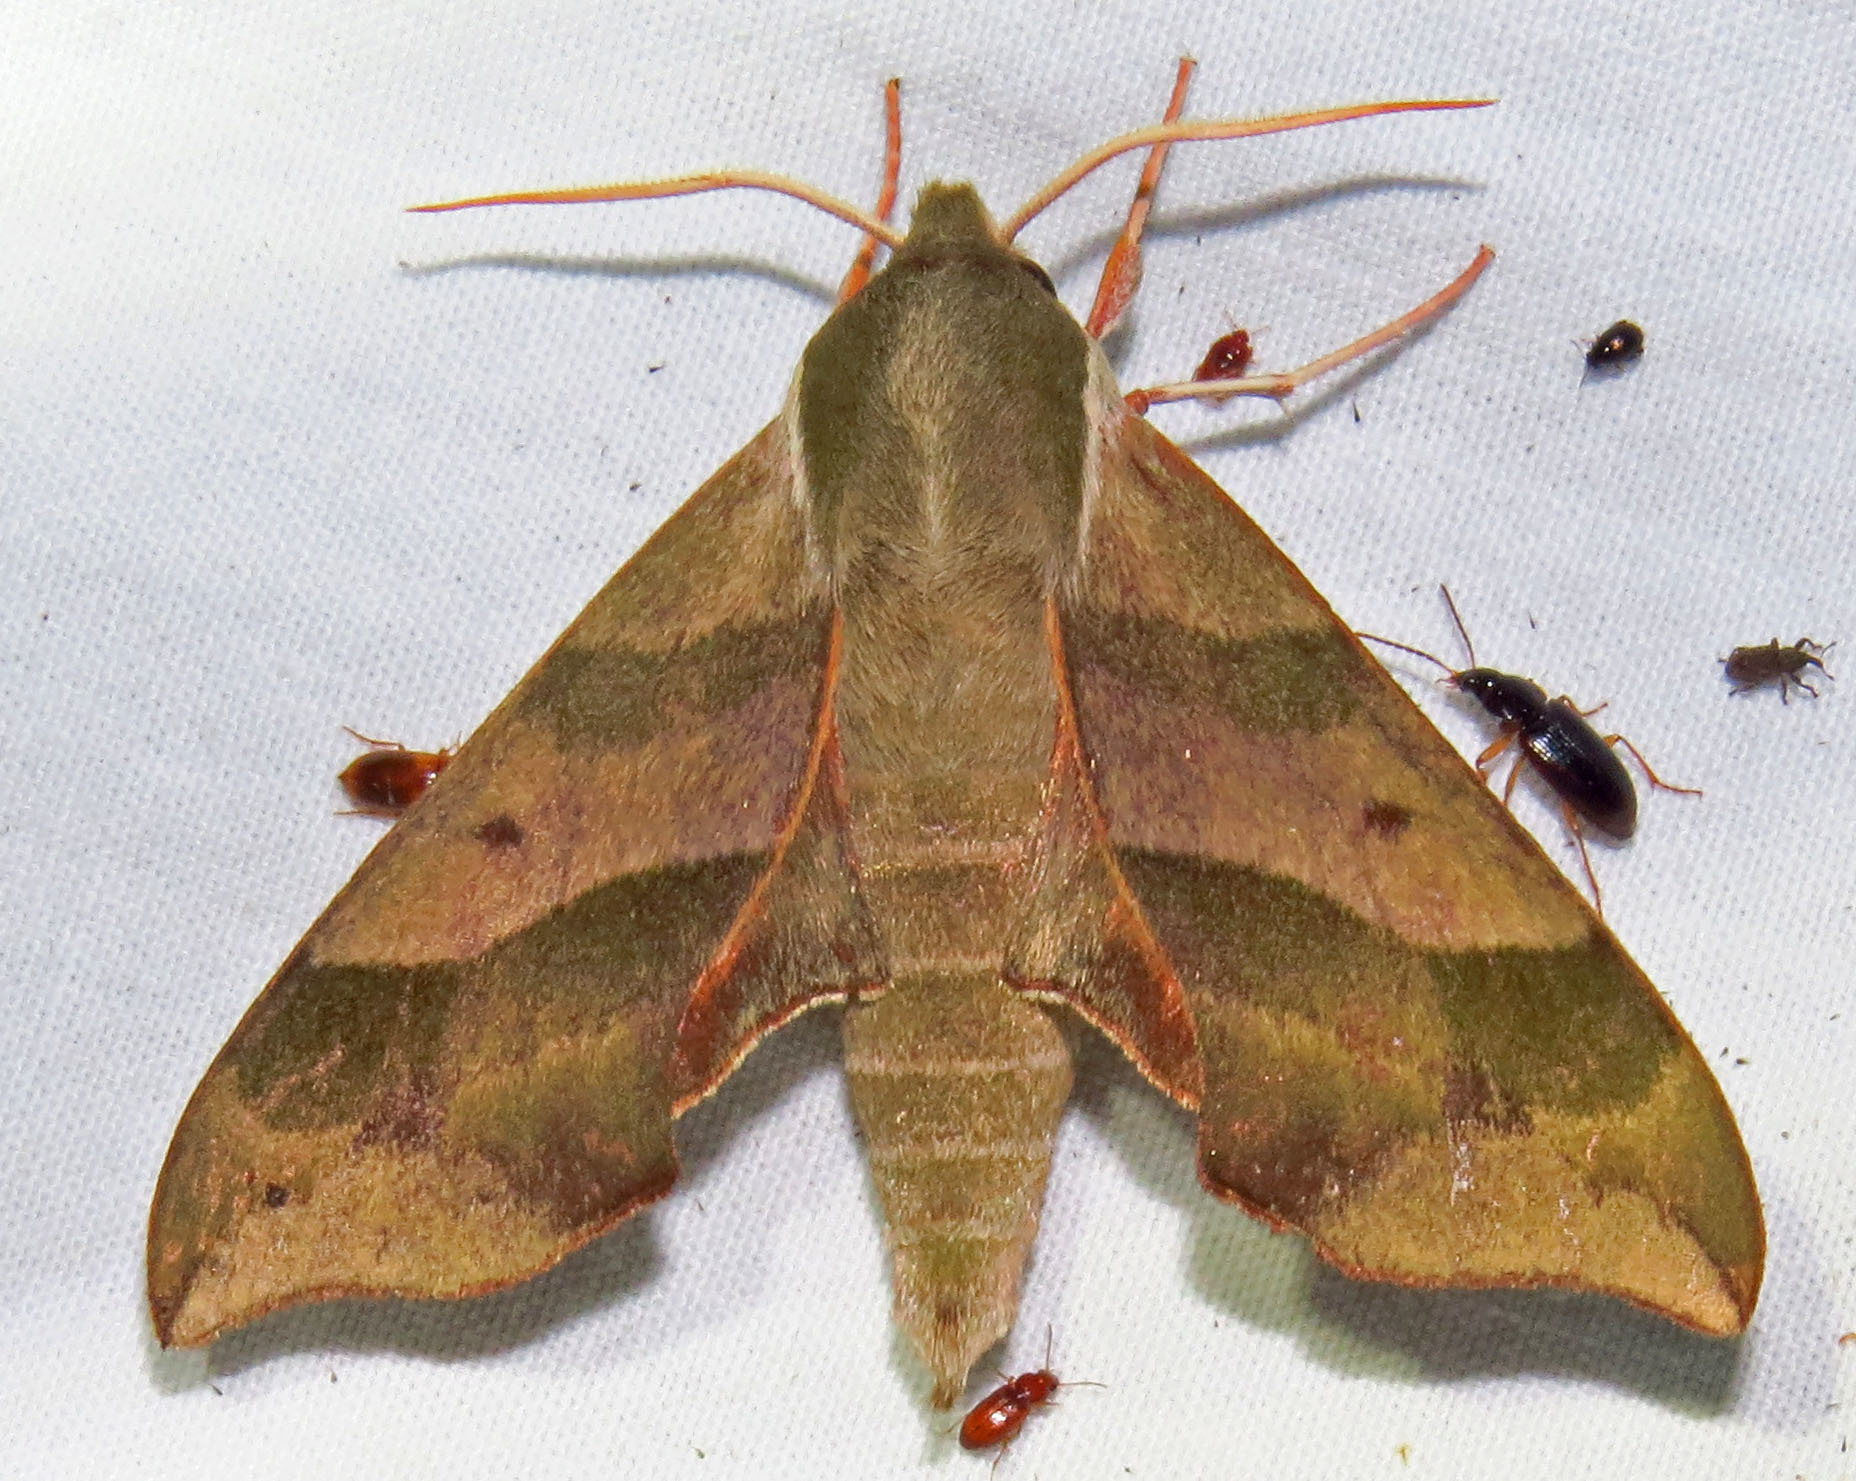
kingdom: Animalia
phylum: Arthropoda
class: Insecta
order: Lepidoptera
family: Sphingidae
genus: Darapsa
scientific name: Darapsa myron
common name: Hog sphinx
